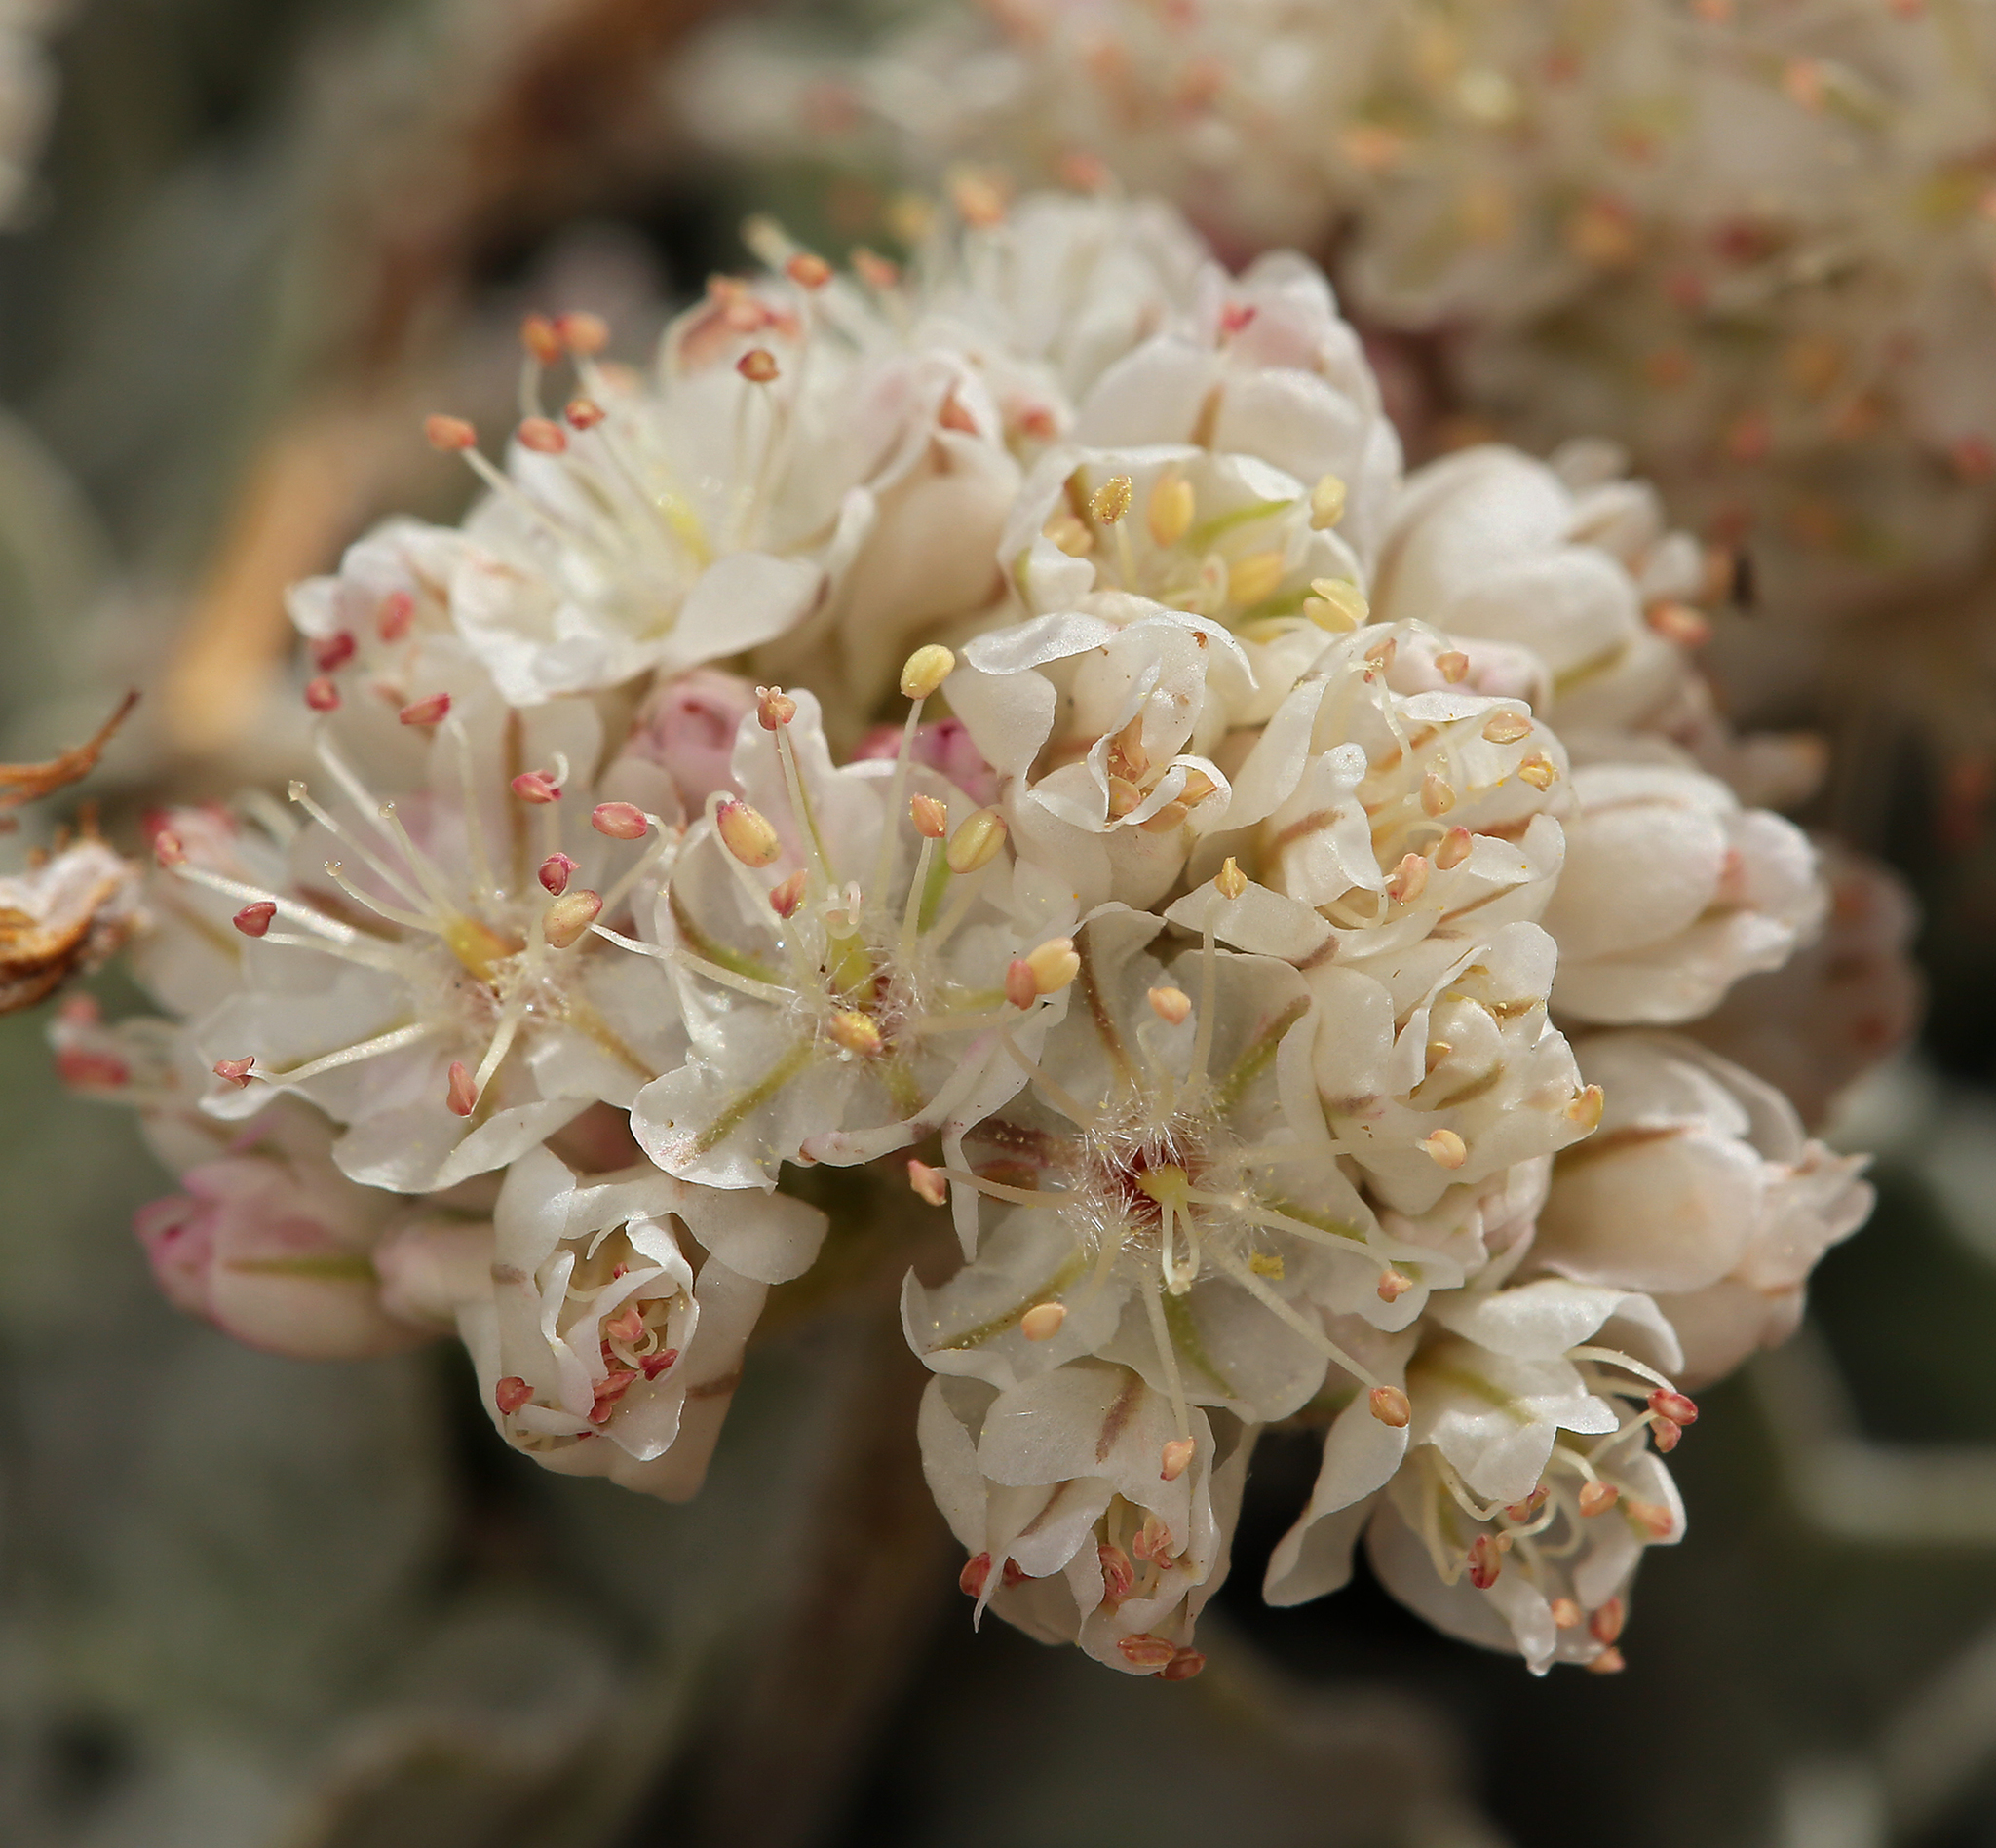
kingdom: Plantae
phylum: Tracheophyta
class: Magnoliopsida
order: Caryophyllales
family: Polygonaceae
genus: Eriogonum
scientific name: Eriogonum ovalifolium
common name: Cushion buckwheat
